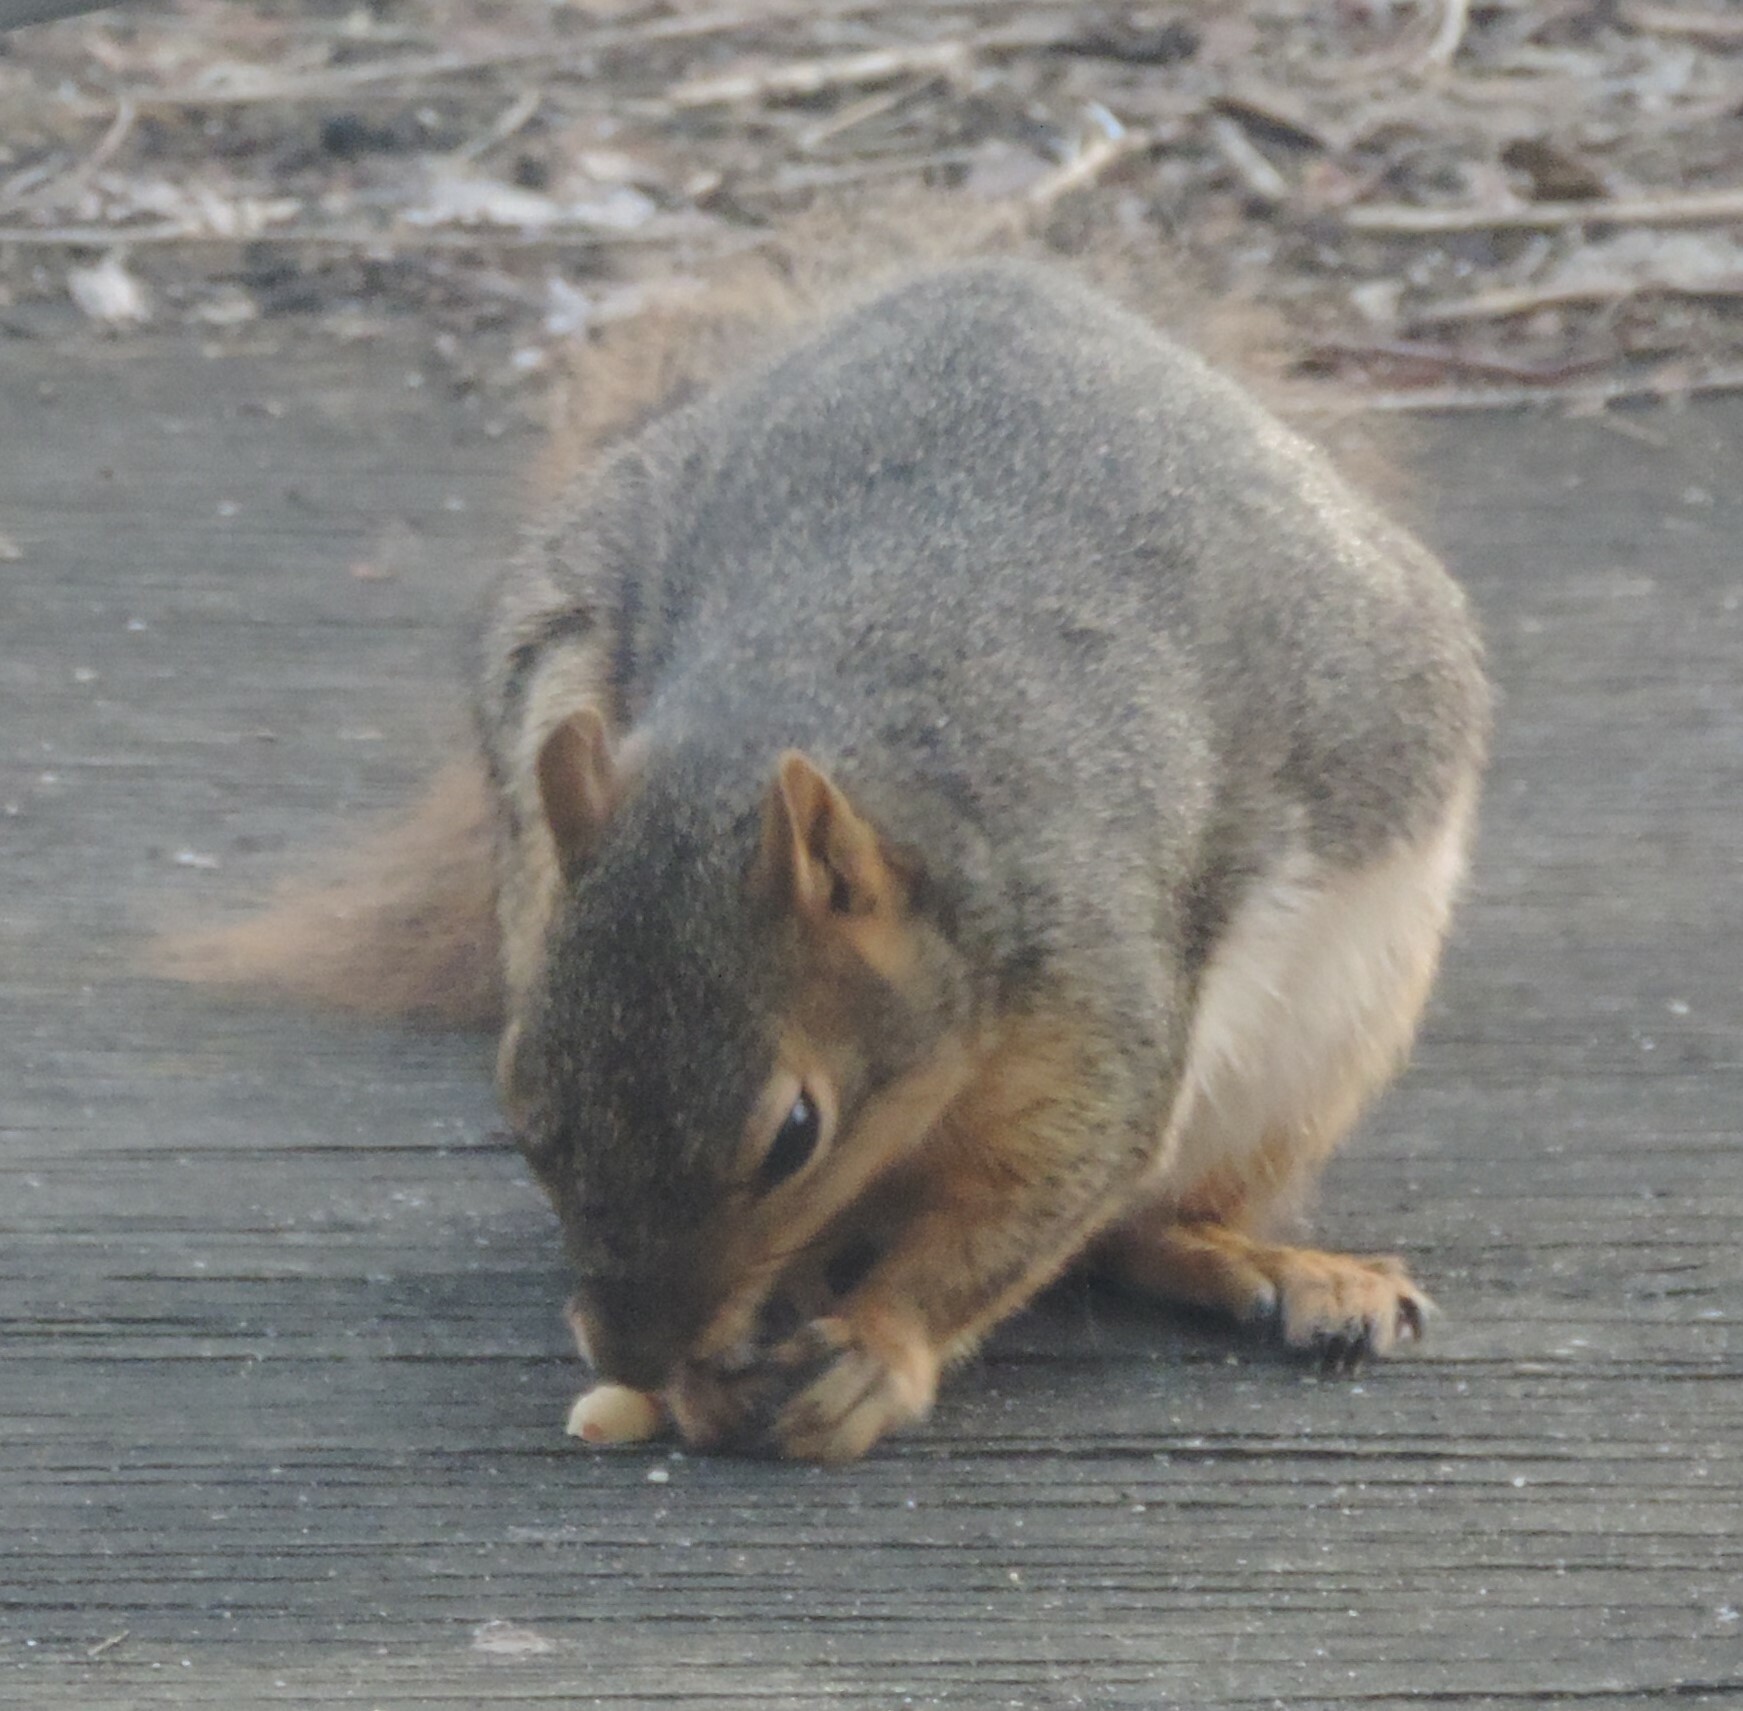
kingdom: Animalia
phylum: Chordata
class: Mammalia
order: Rodentia
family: Sciuridae
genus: Sciurus
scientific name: Sciurus niger
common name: Fox squirrel
